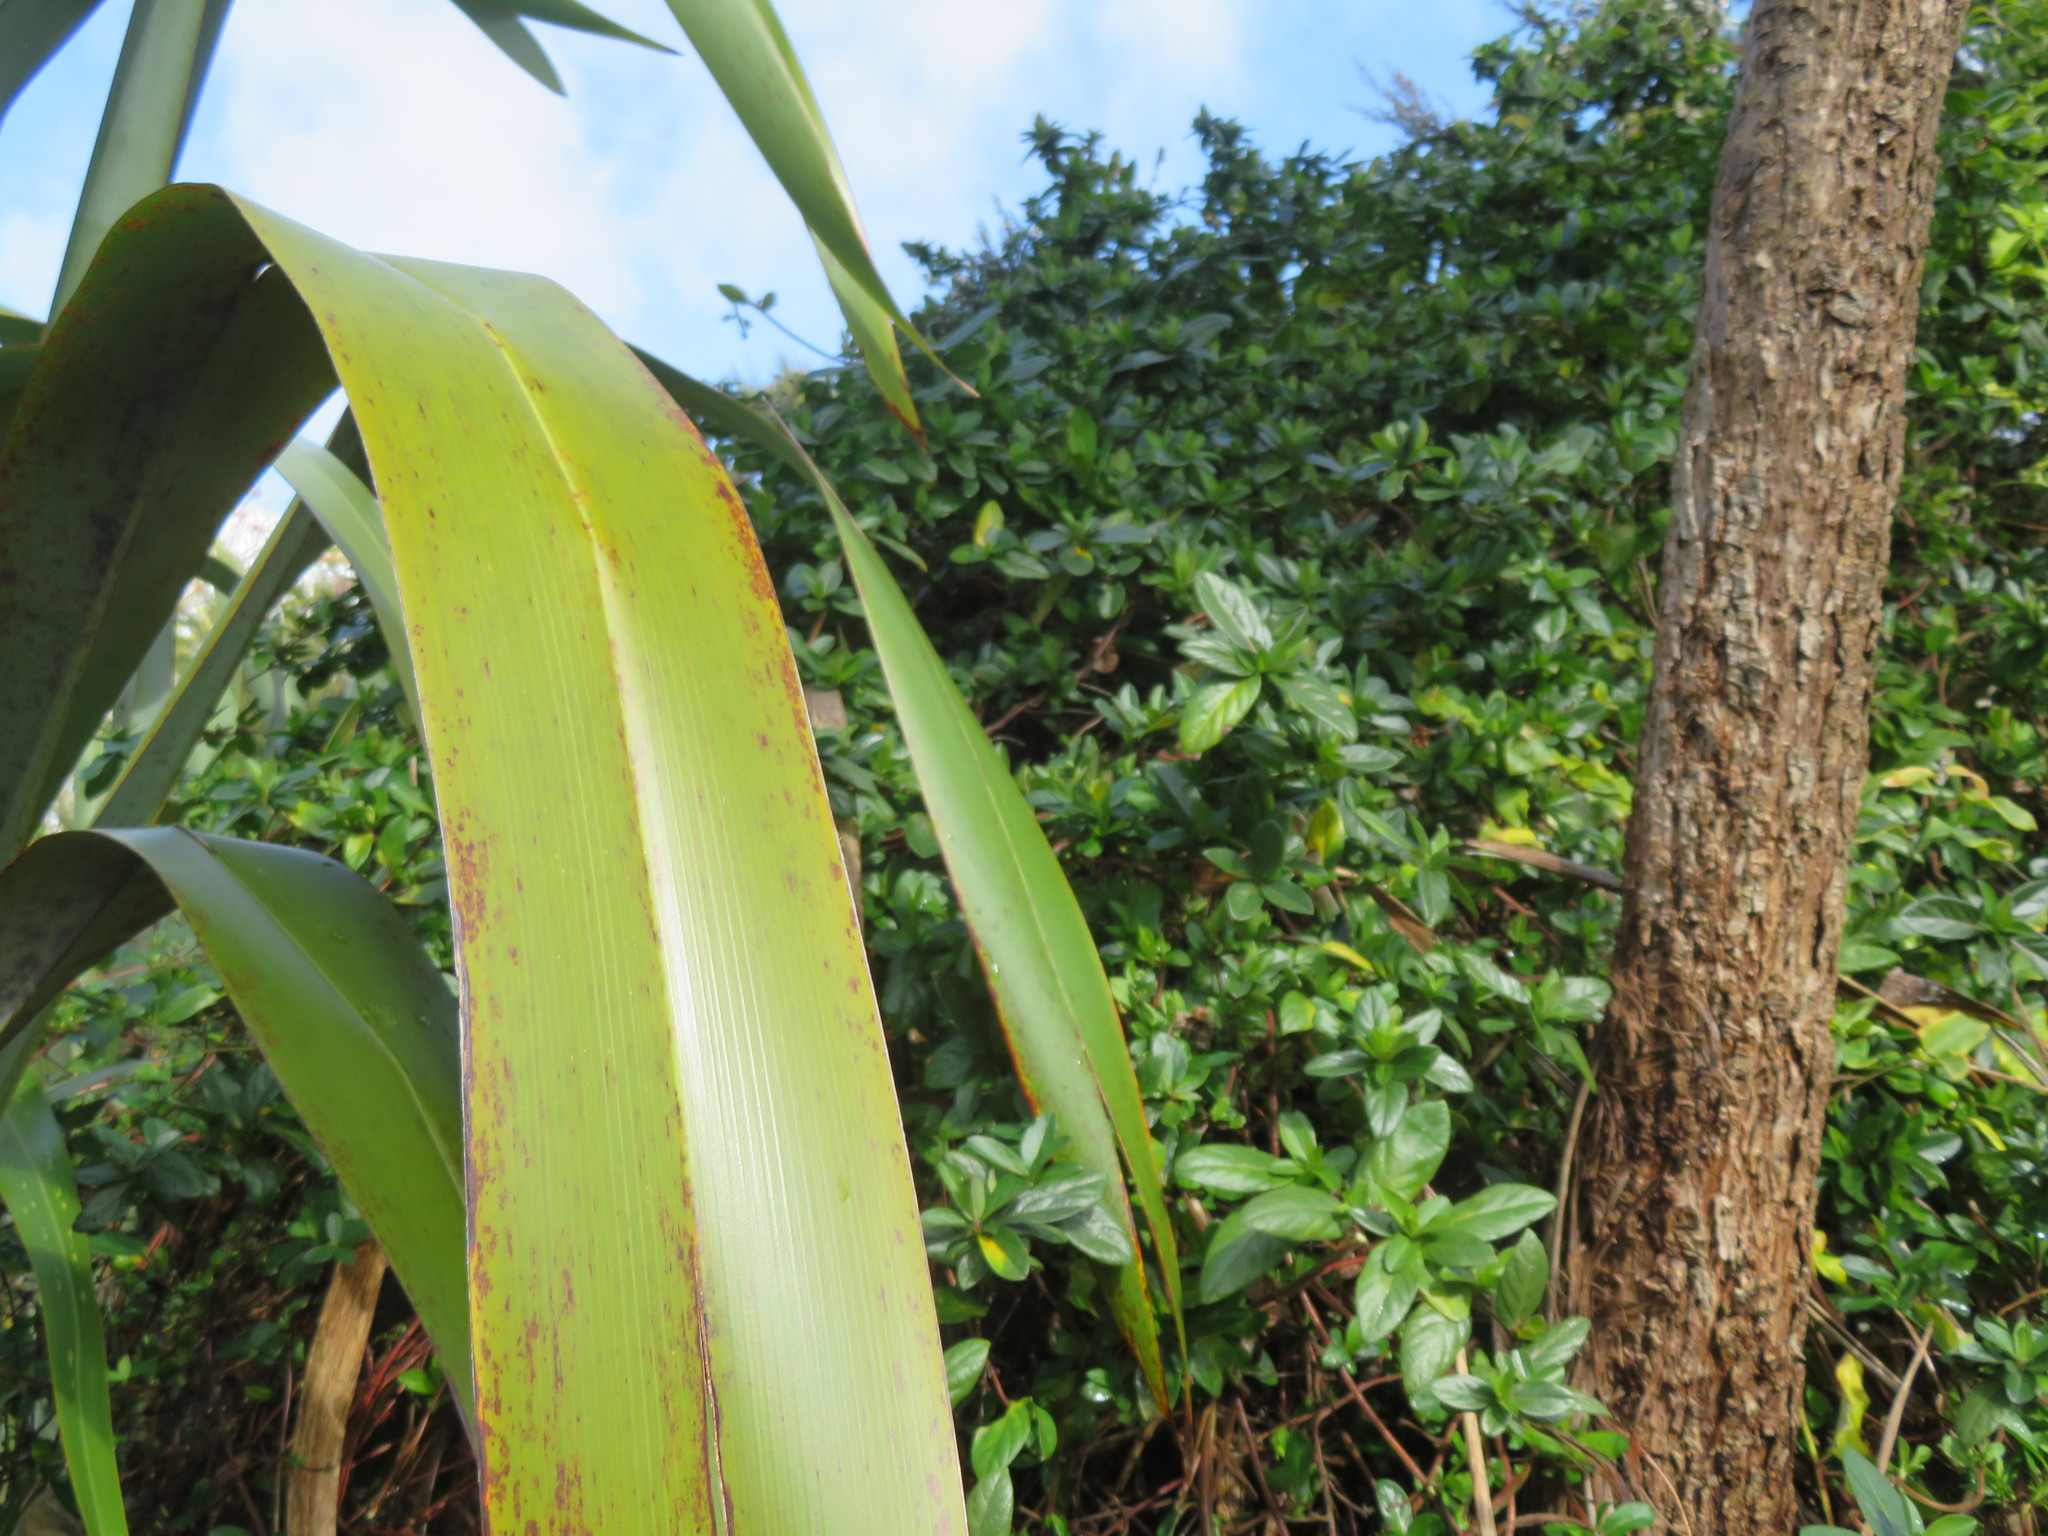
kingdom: Plantae
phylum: Tracheophyta
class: Magnoliopsida
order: Dipsacales
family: Caprifoliaceae
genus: Lonicera
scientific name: Lonicera japonica
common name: Japanese honeysuckle
